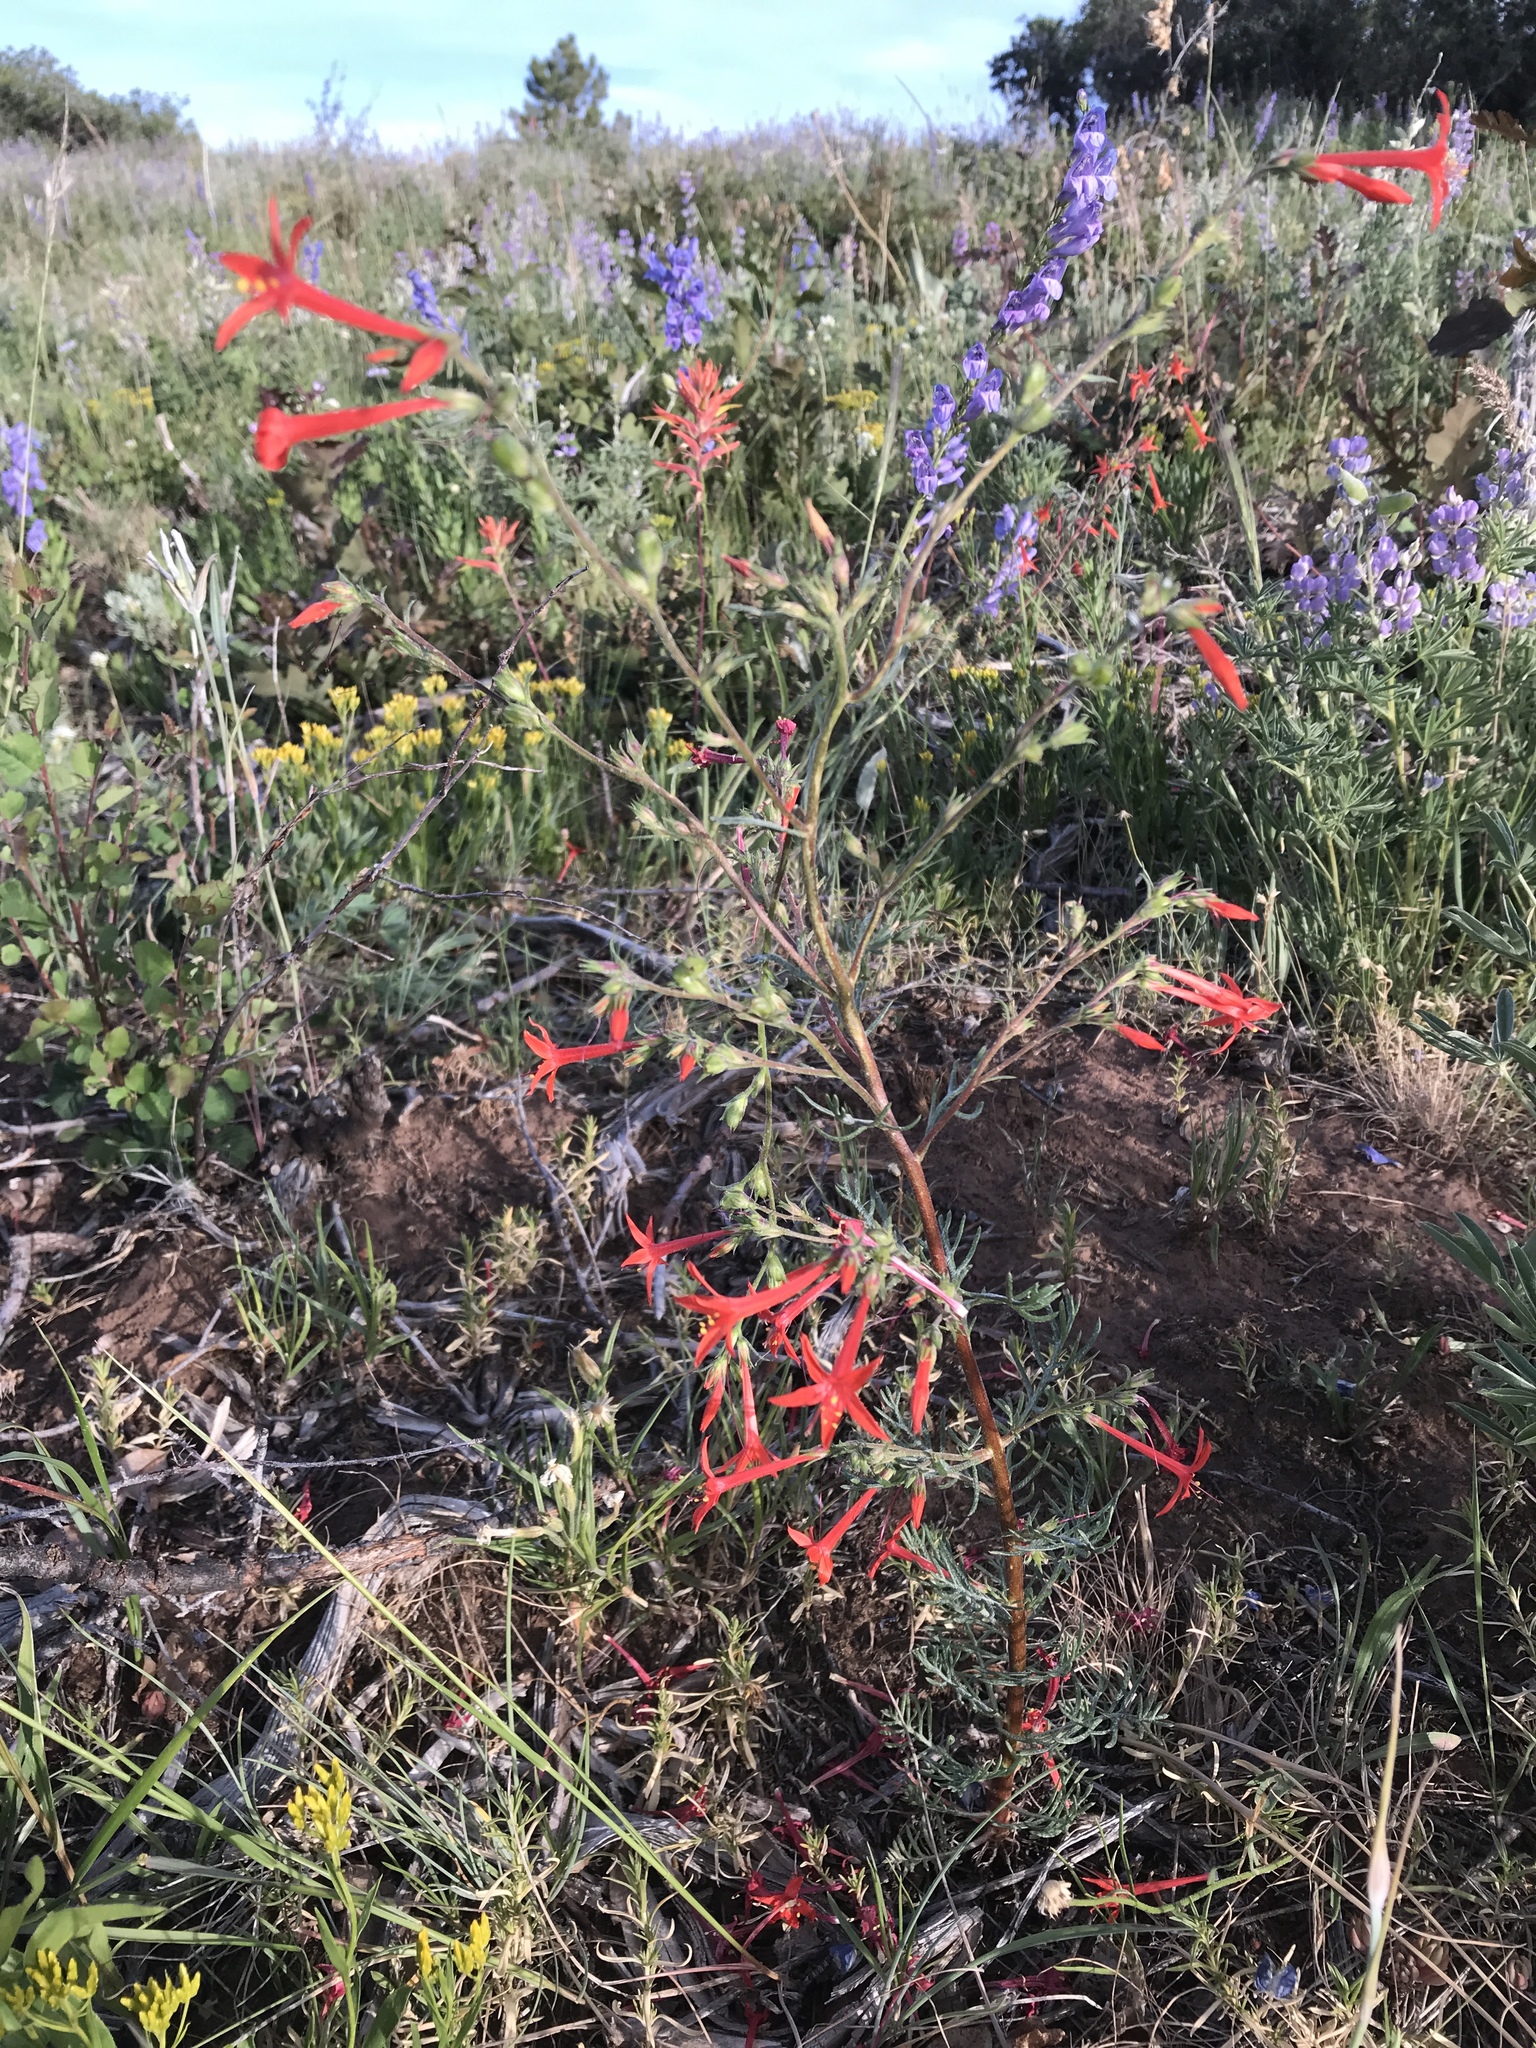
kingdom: Plantae
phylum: Tracheophyta
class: Magnoliopsida
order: Ericales
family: Polemoniaceae
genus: Ipomopsis
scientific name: Ipomopsis aggregata
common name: Scarlet gilia
